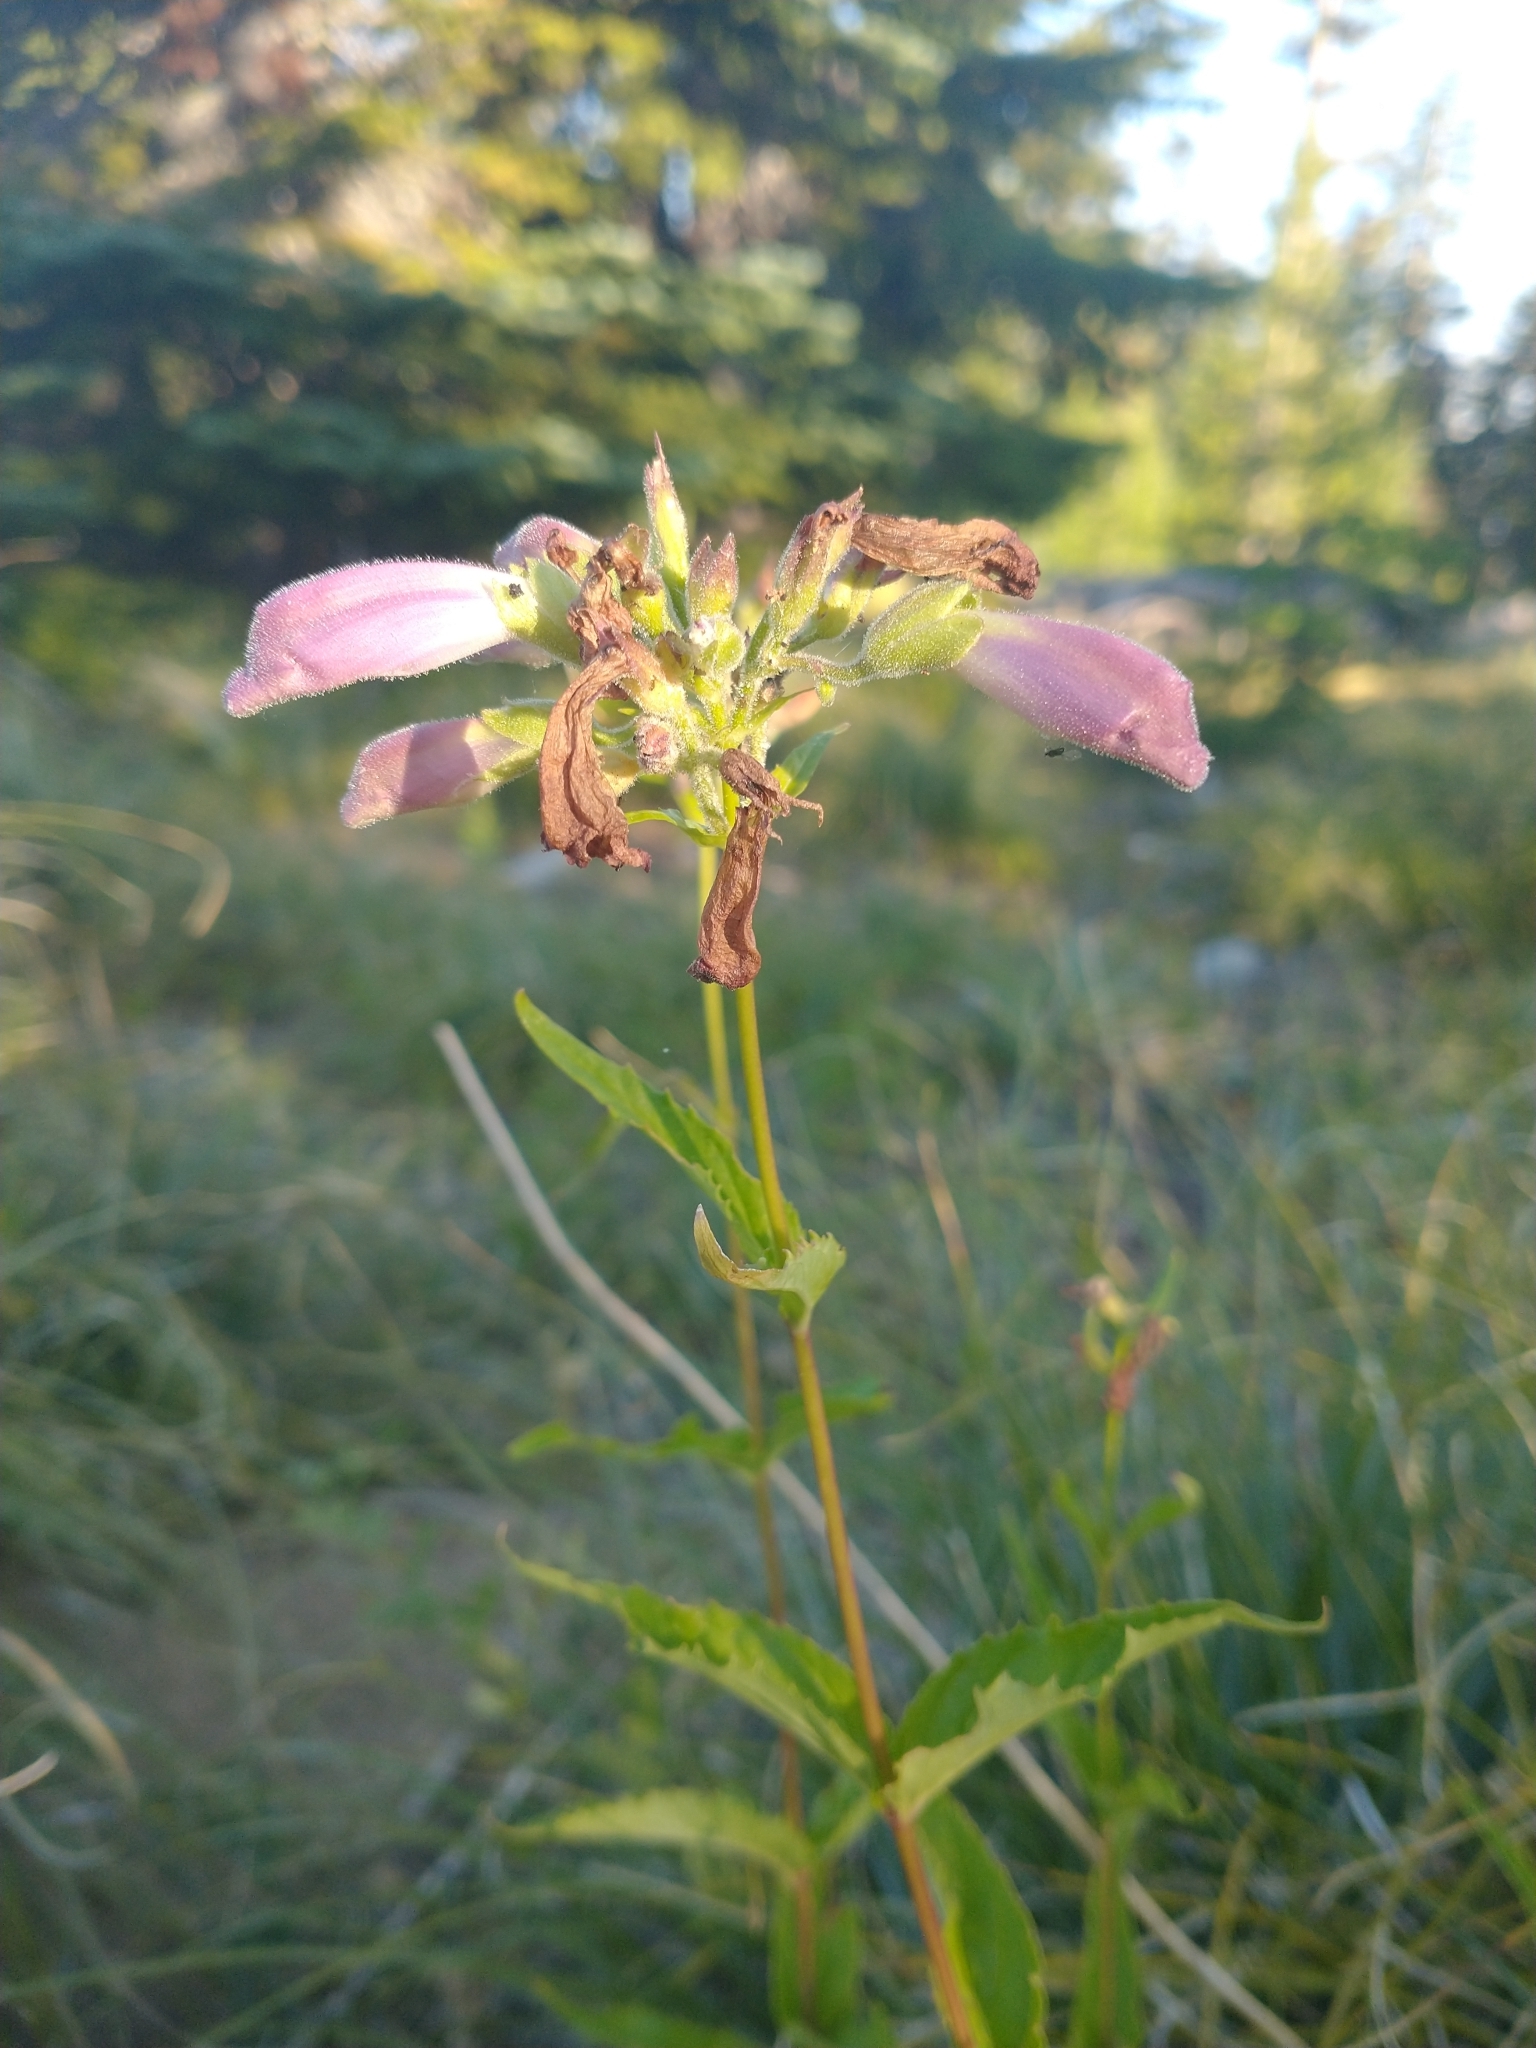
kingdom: Plantae
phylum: Tracheophyta
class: Magnoliopsida
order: Lamiales
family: Plantaginaceae
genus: Nothochelone
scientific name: Nothochelone nemorosa
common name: Woodland beardtongue
